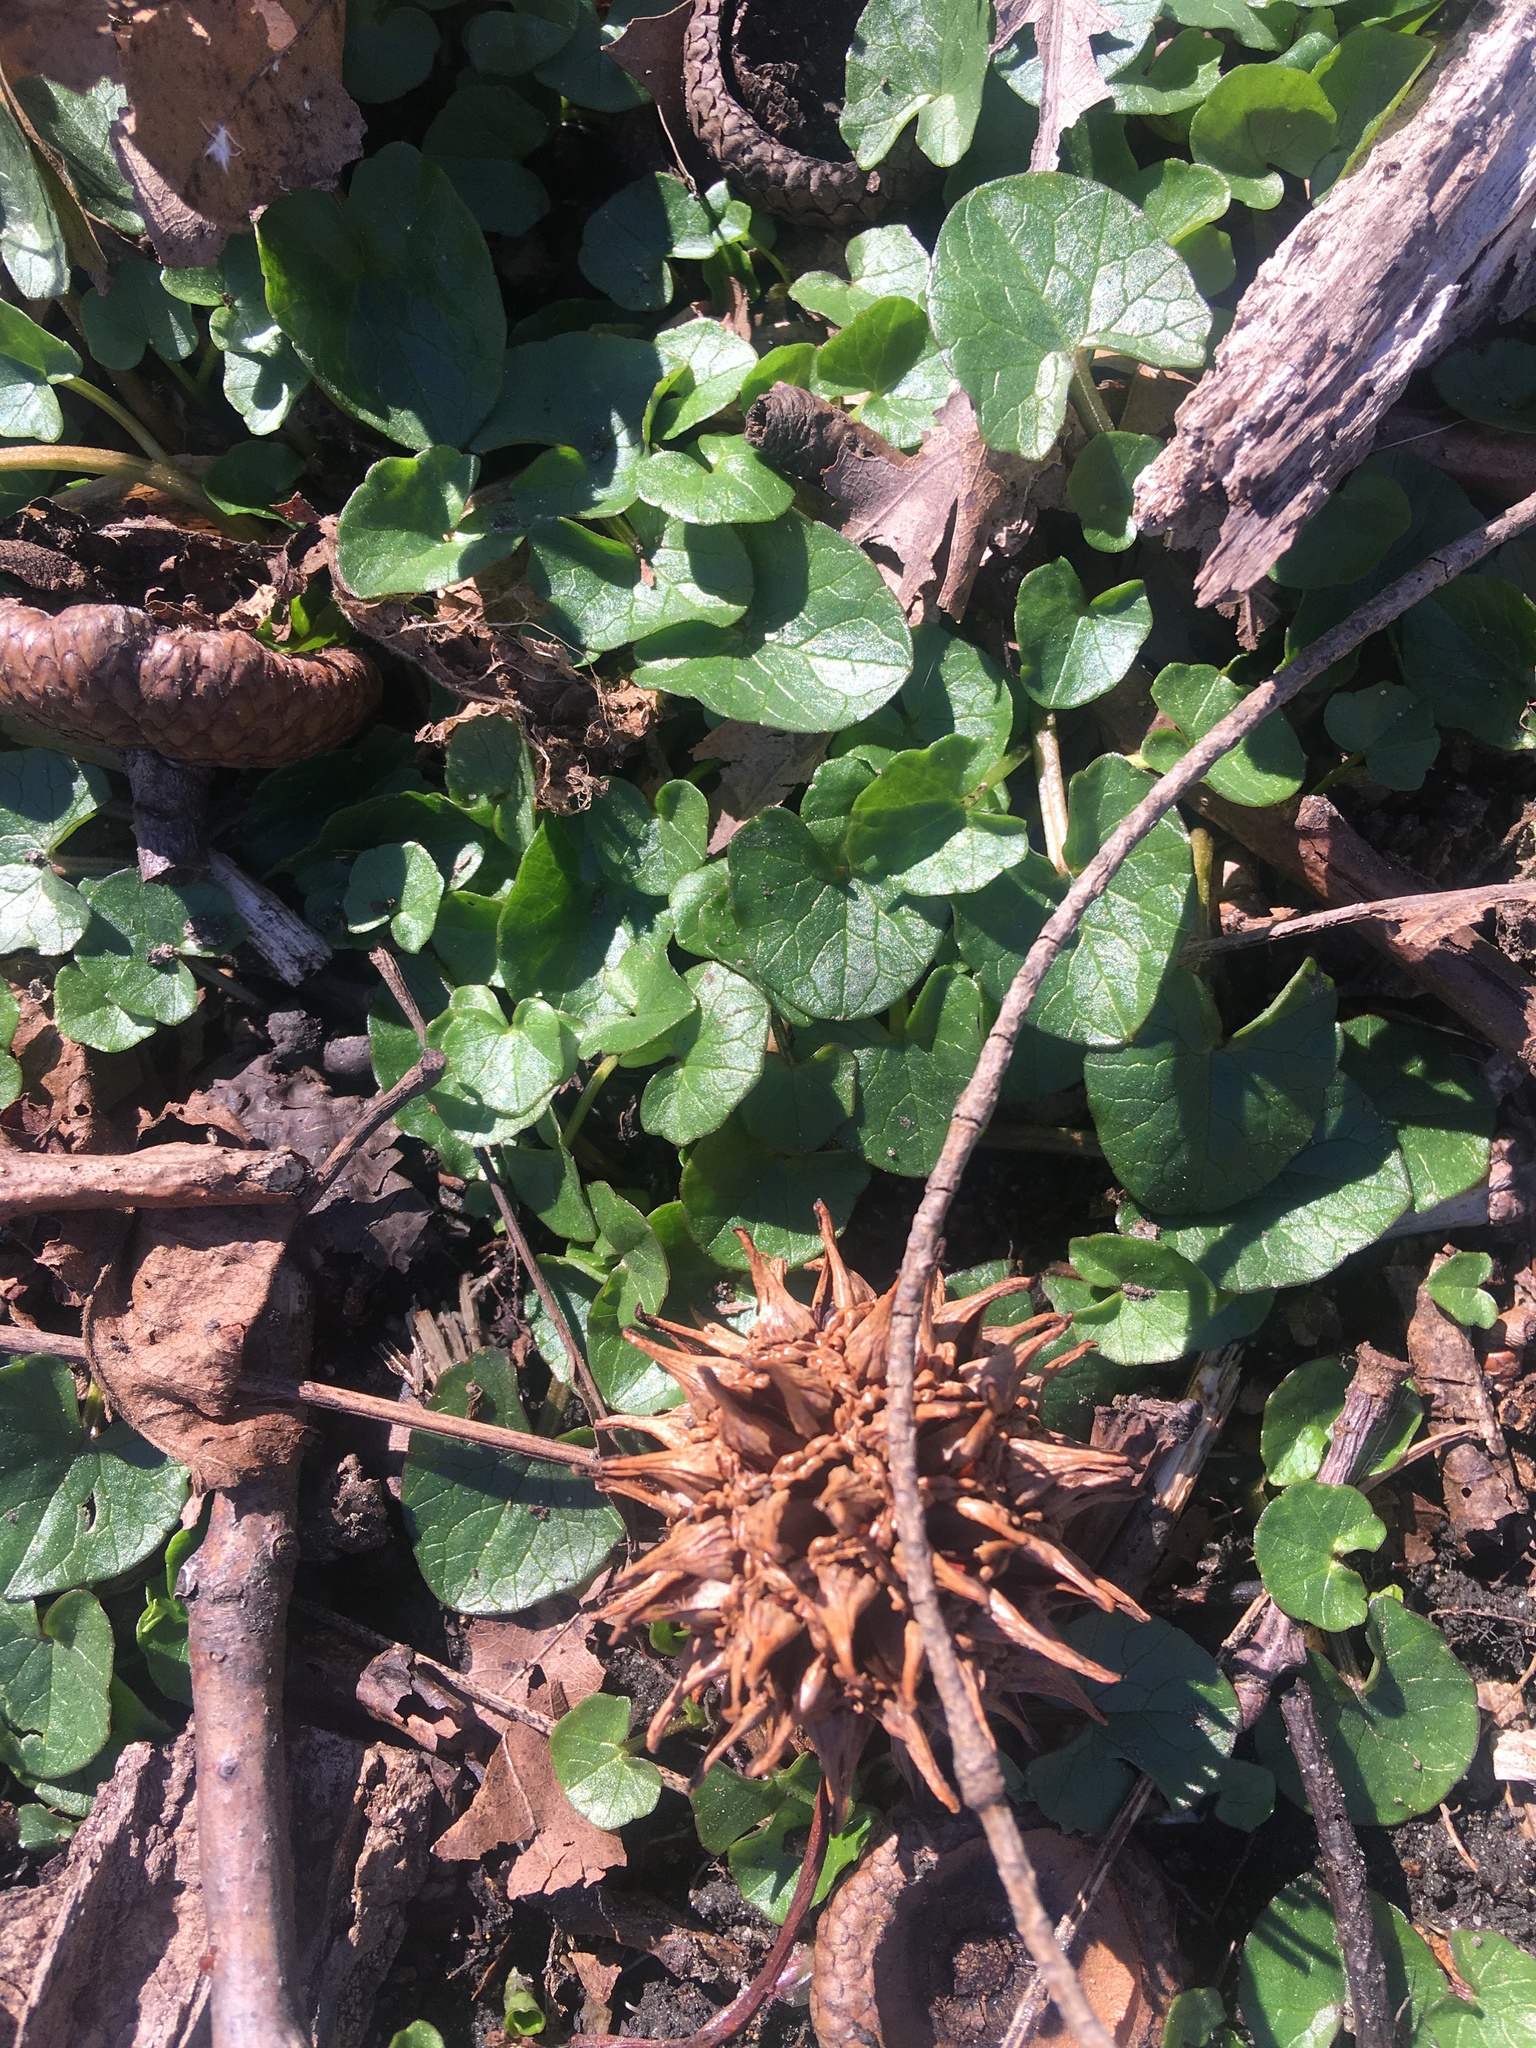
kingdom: Plantae
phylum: Tracheophyta
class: Magnoliopsida
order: Ranunculales
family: Ranunculaceae
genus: Ficaria
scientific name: Ficaria verna
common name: Lesser celandine
